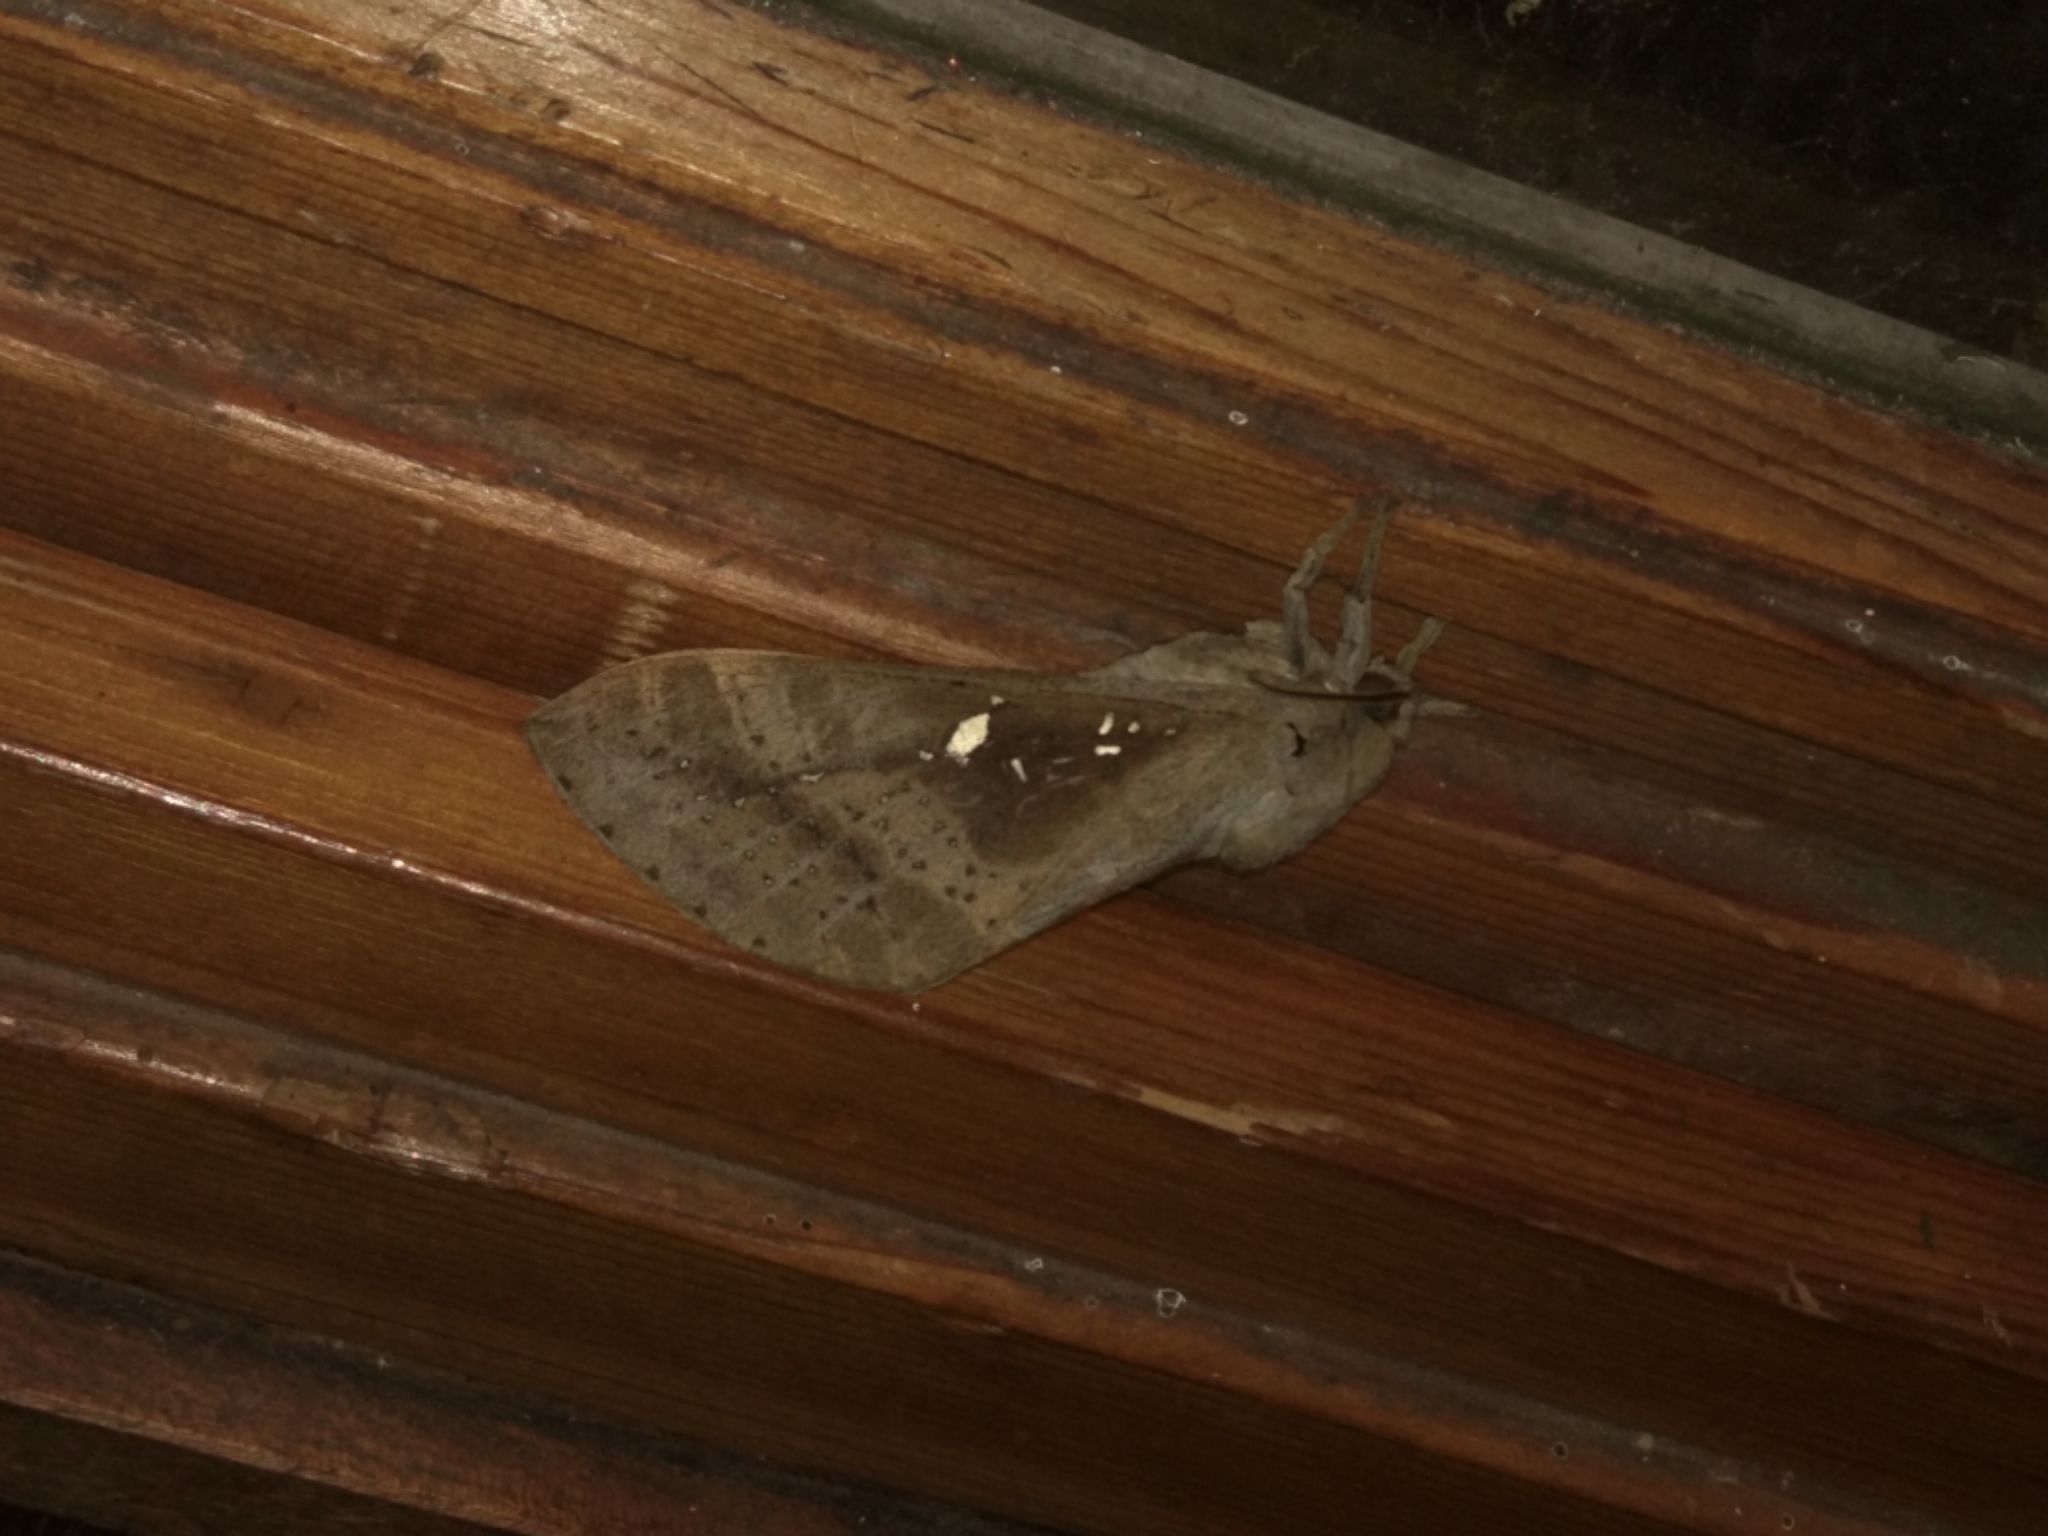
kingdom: Animalia
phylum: Arthropoda
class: Insecta
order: Lepidoptera
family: Hepialidae
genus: Oxycanus
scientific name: Oxycanus beltista
